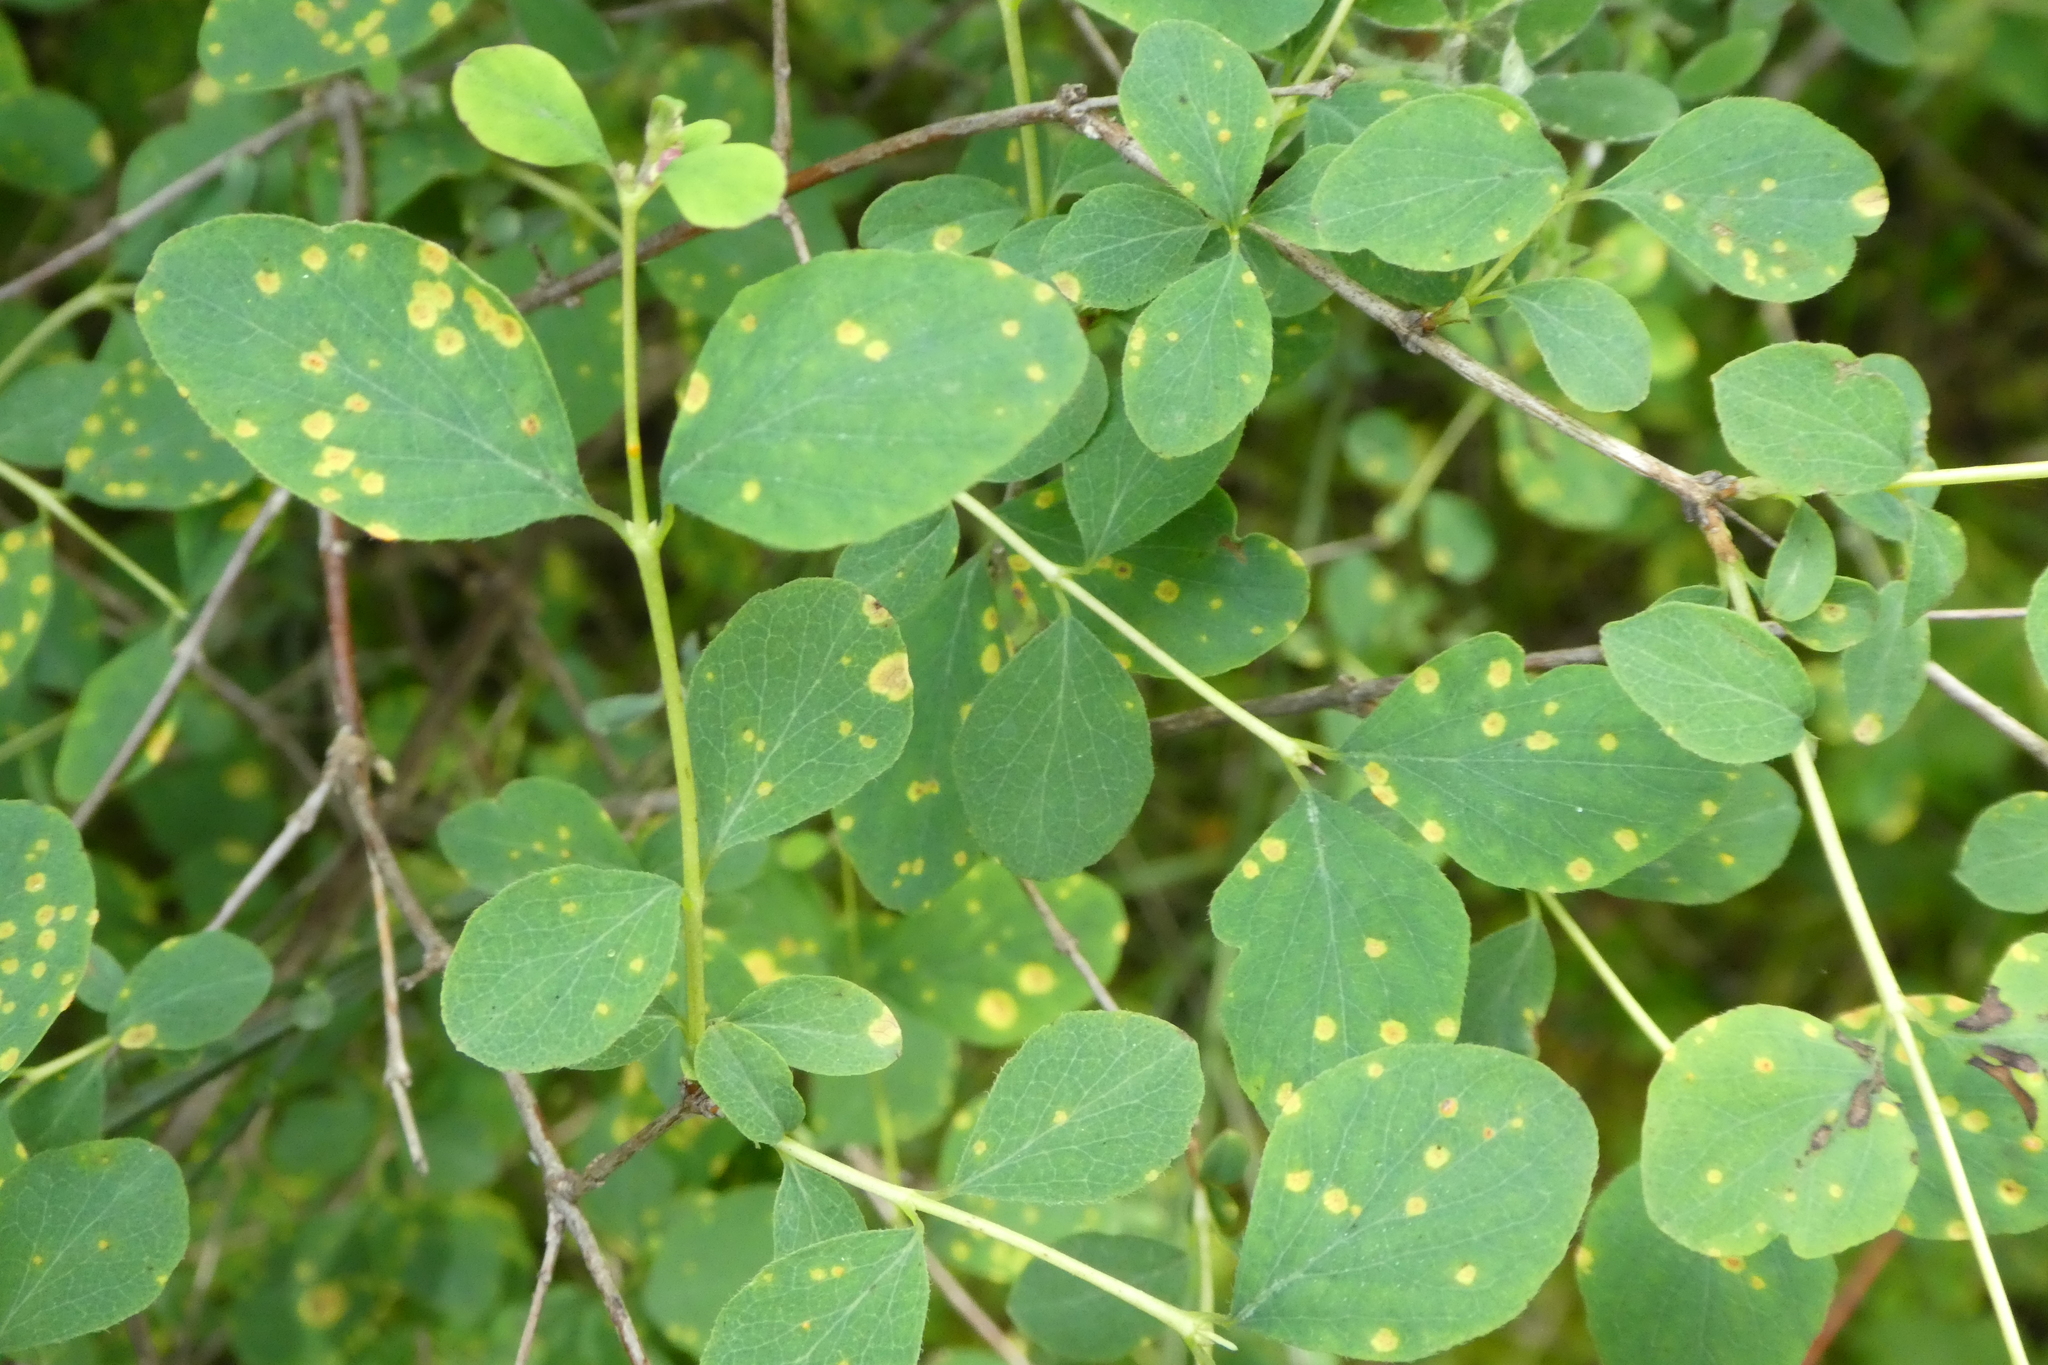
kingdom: Plantae
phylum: Tracheophyta
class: Magnoliopsida
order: Dipsacales
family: Caprifoliaceae
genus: Symphoricarpos
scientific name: Symphoricarpos albus
